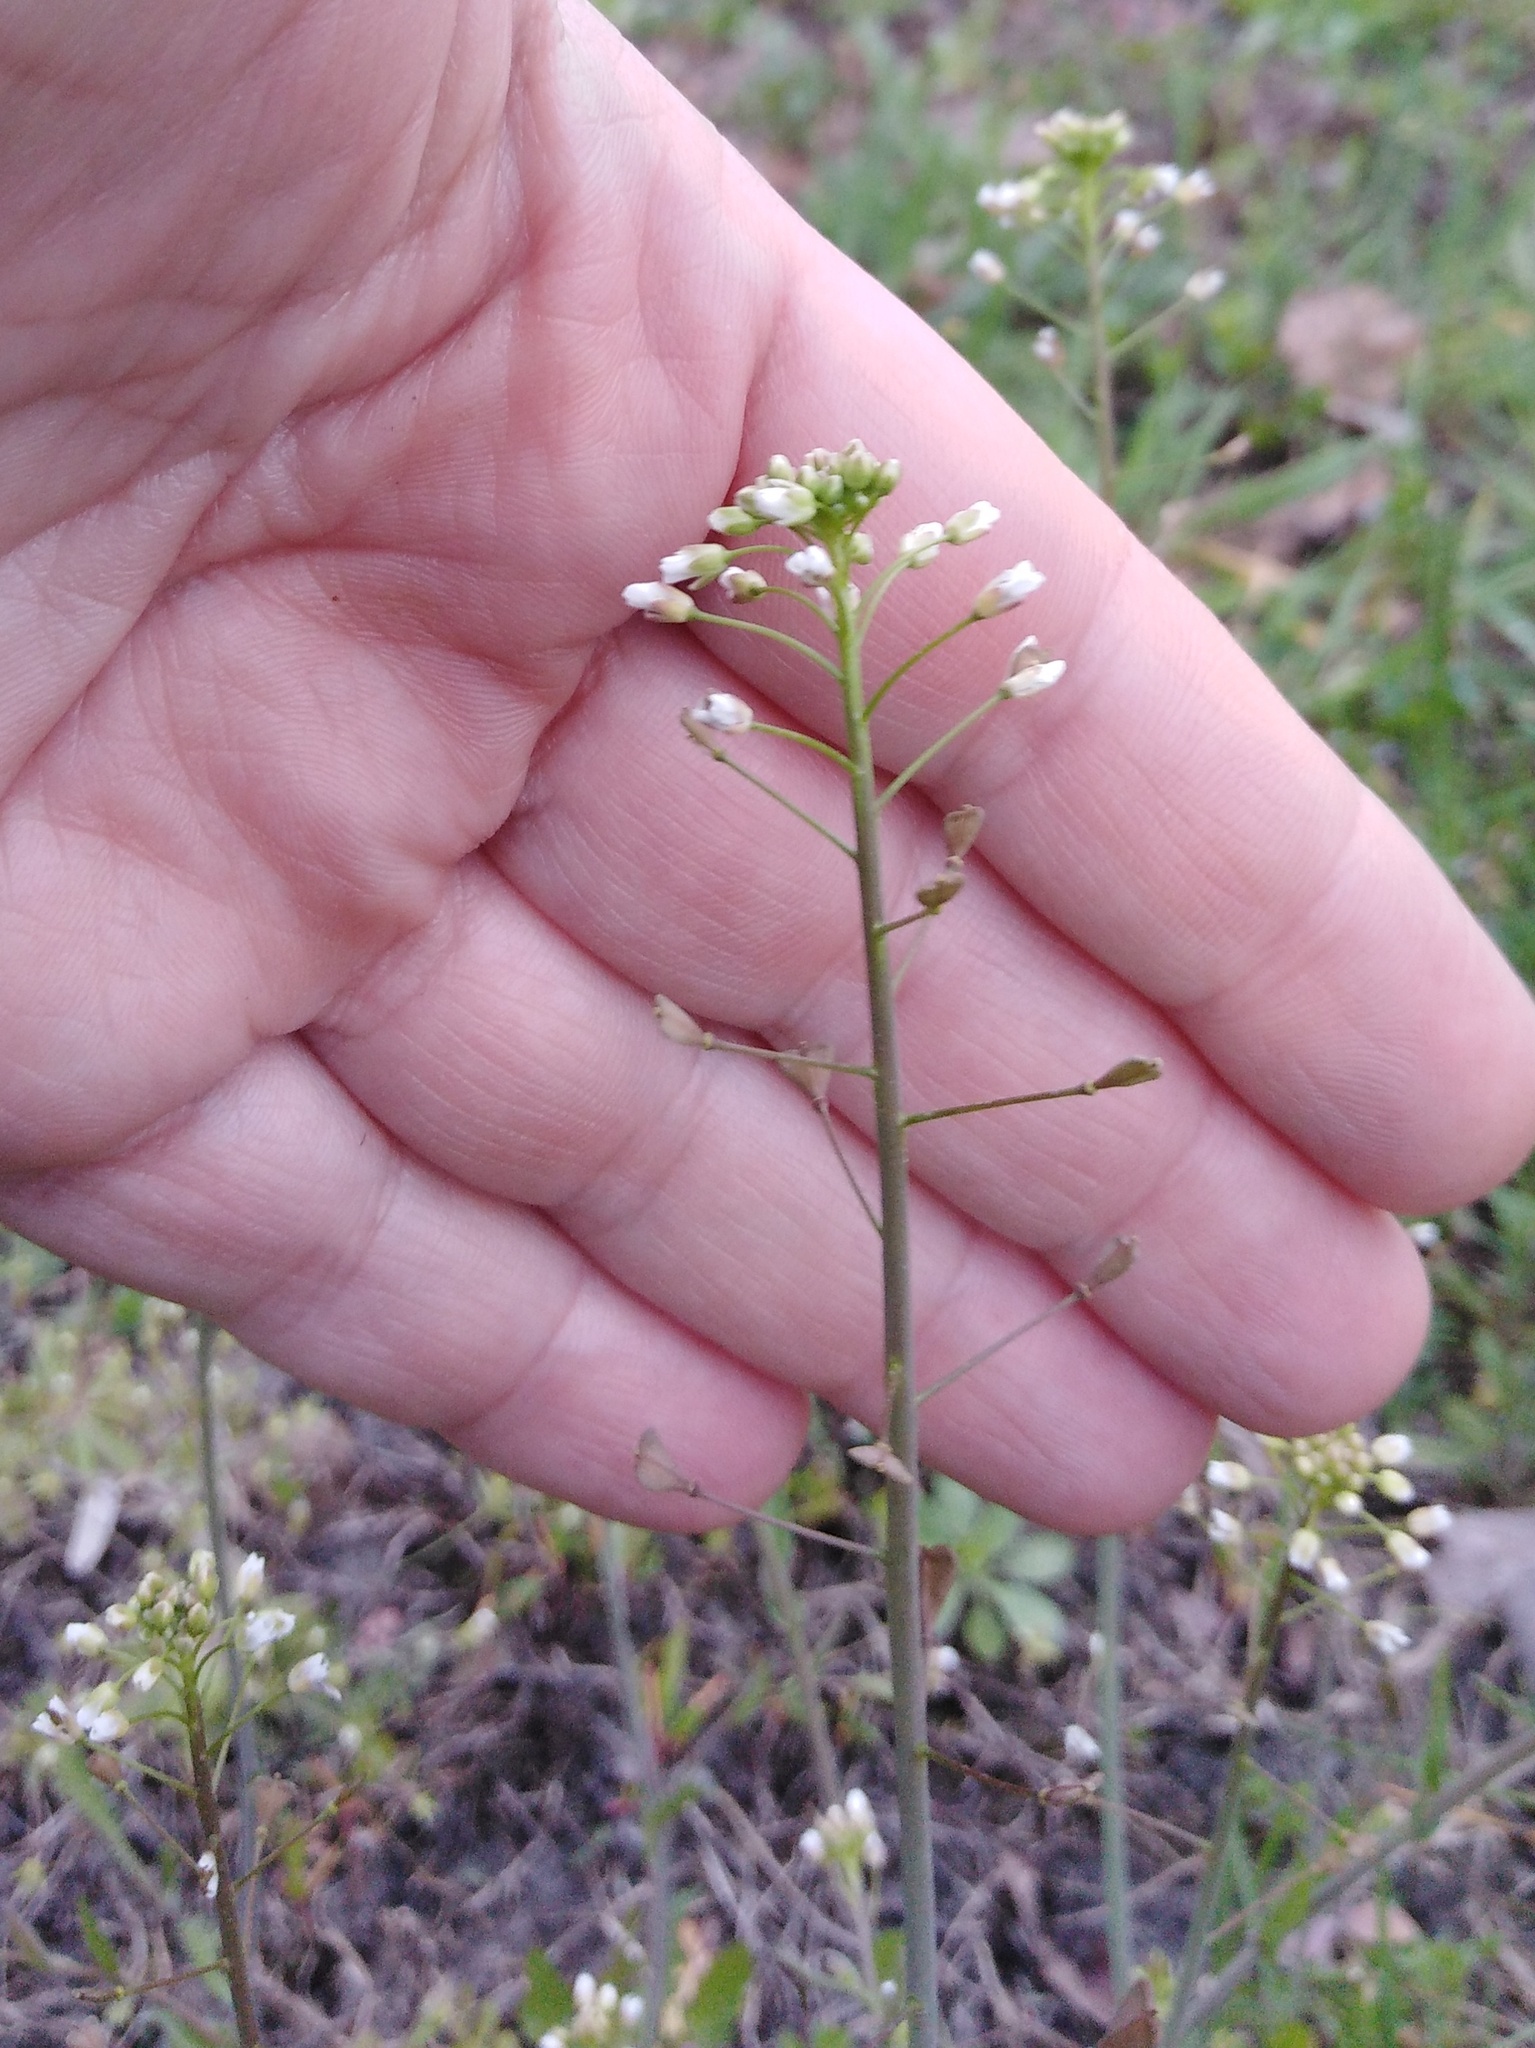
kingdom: Plantae
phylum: Tracheophyta
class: Magnoliopsida
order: Brassicales
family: Brassicaceae
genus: Capsella
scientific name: Capsella bursa-pastoris
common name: Shepherd's purse
